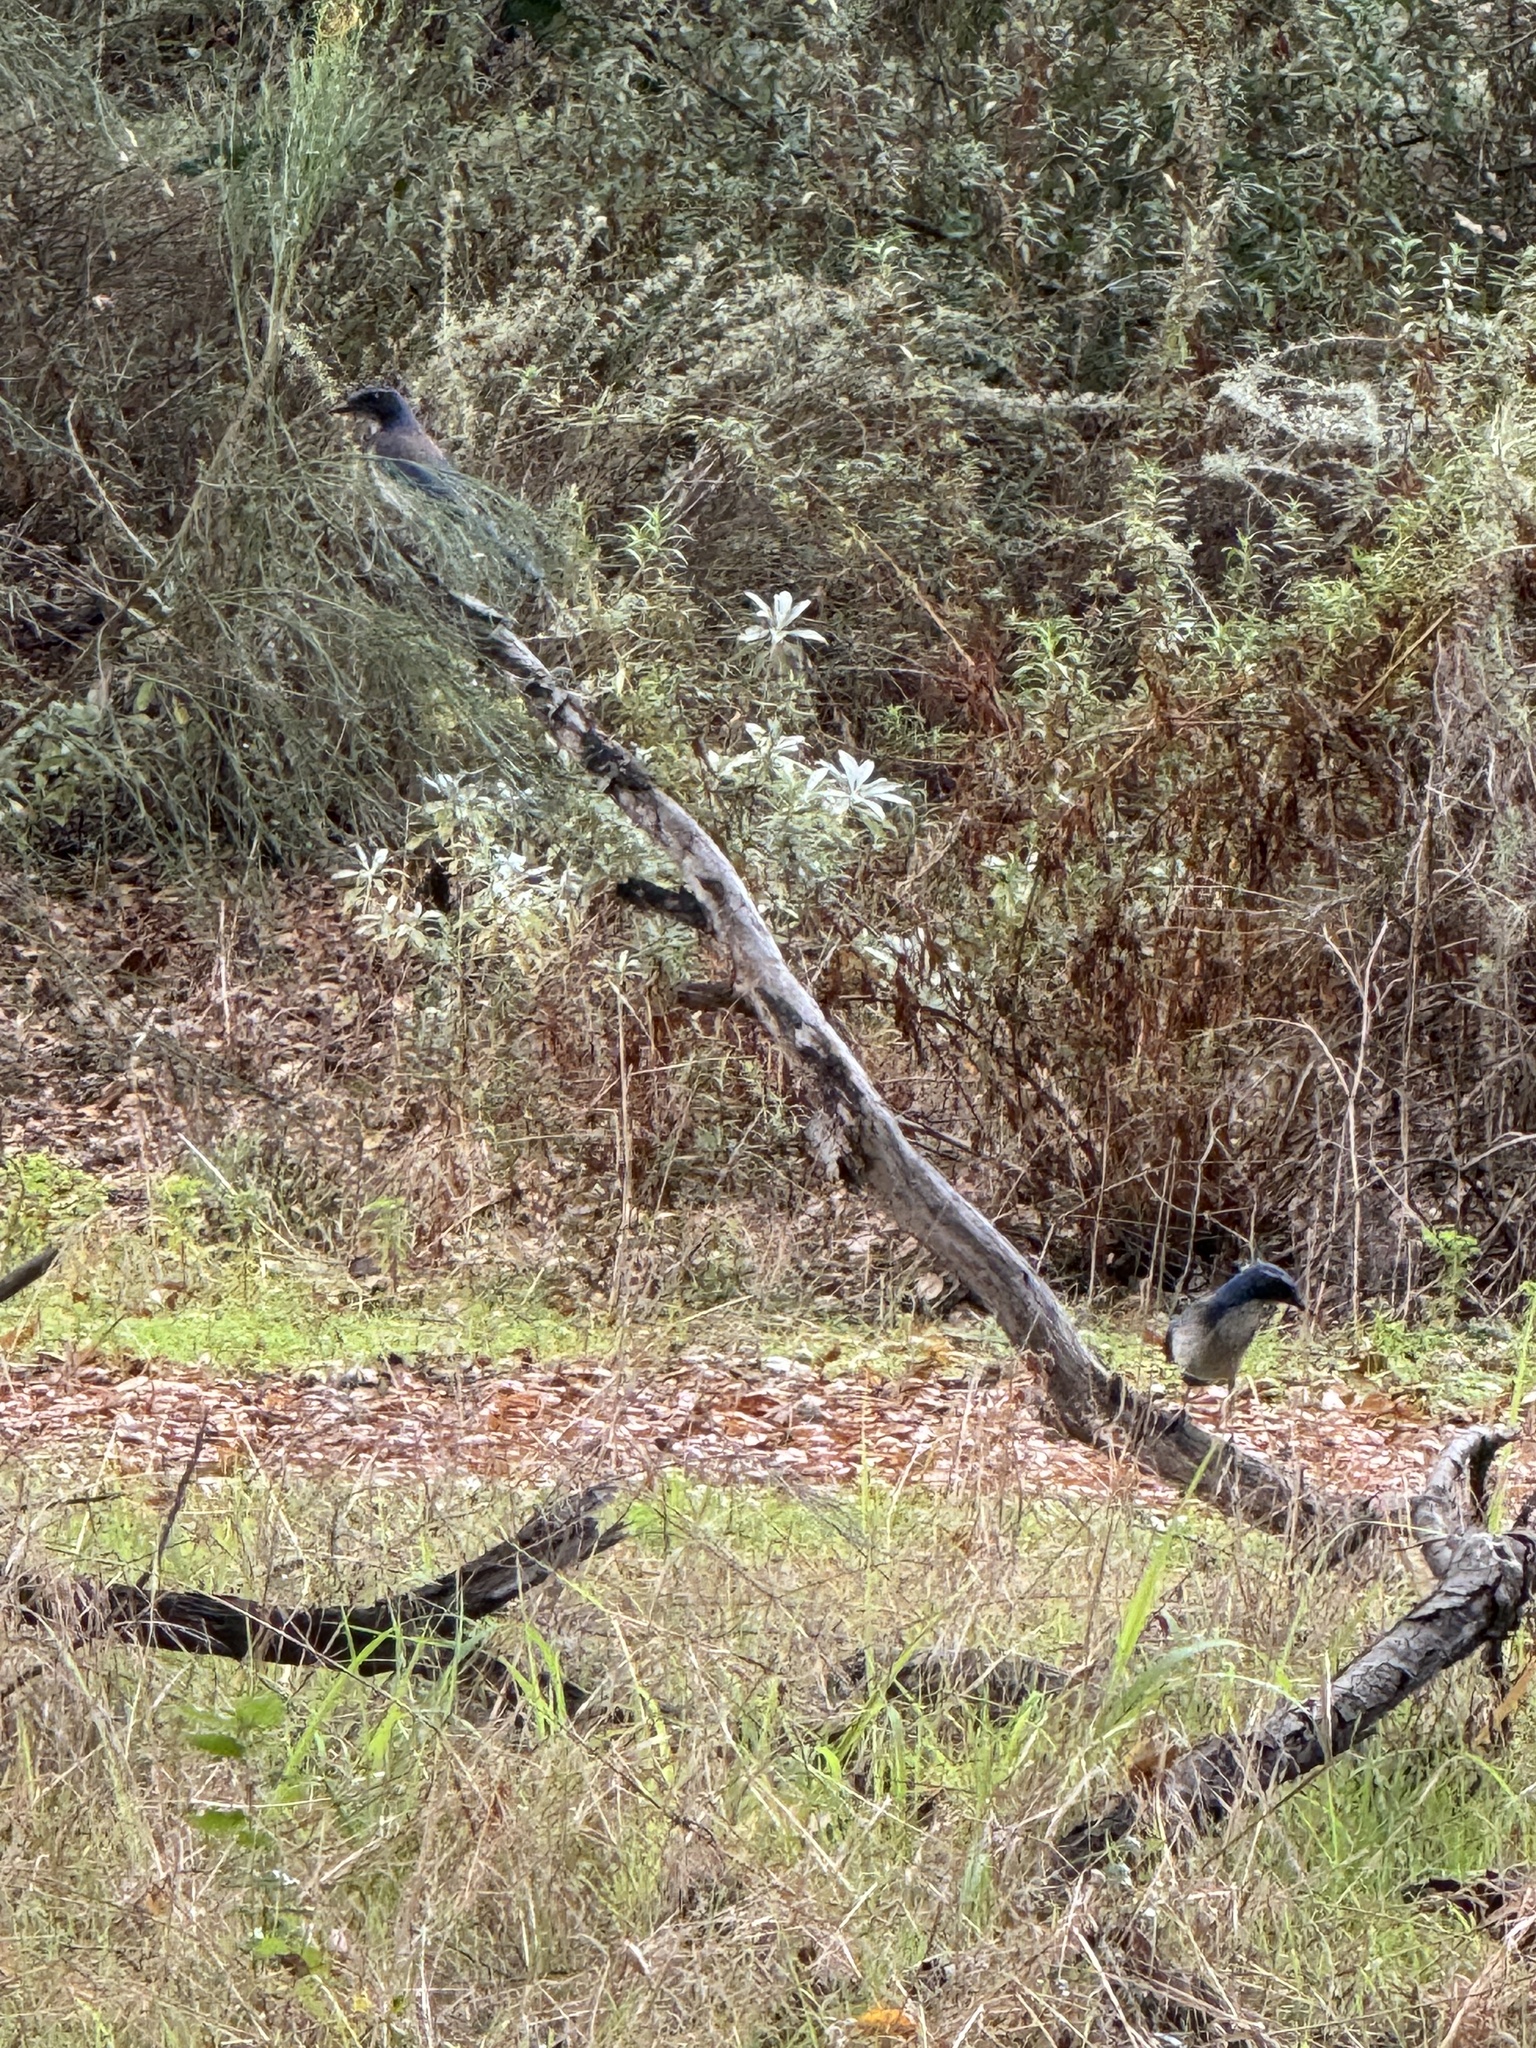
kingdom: Animalia
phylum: Chordata
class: Aves
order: Passeriformes
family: Corvidae
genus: Aphelocoma
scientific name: Aphelocoma californica
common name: California scrub-jay
